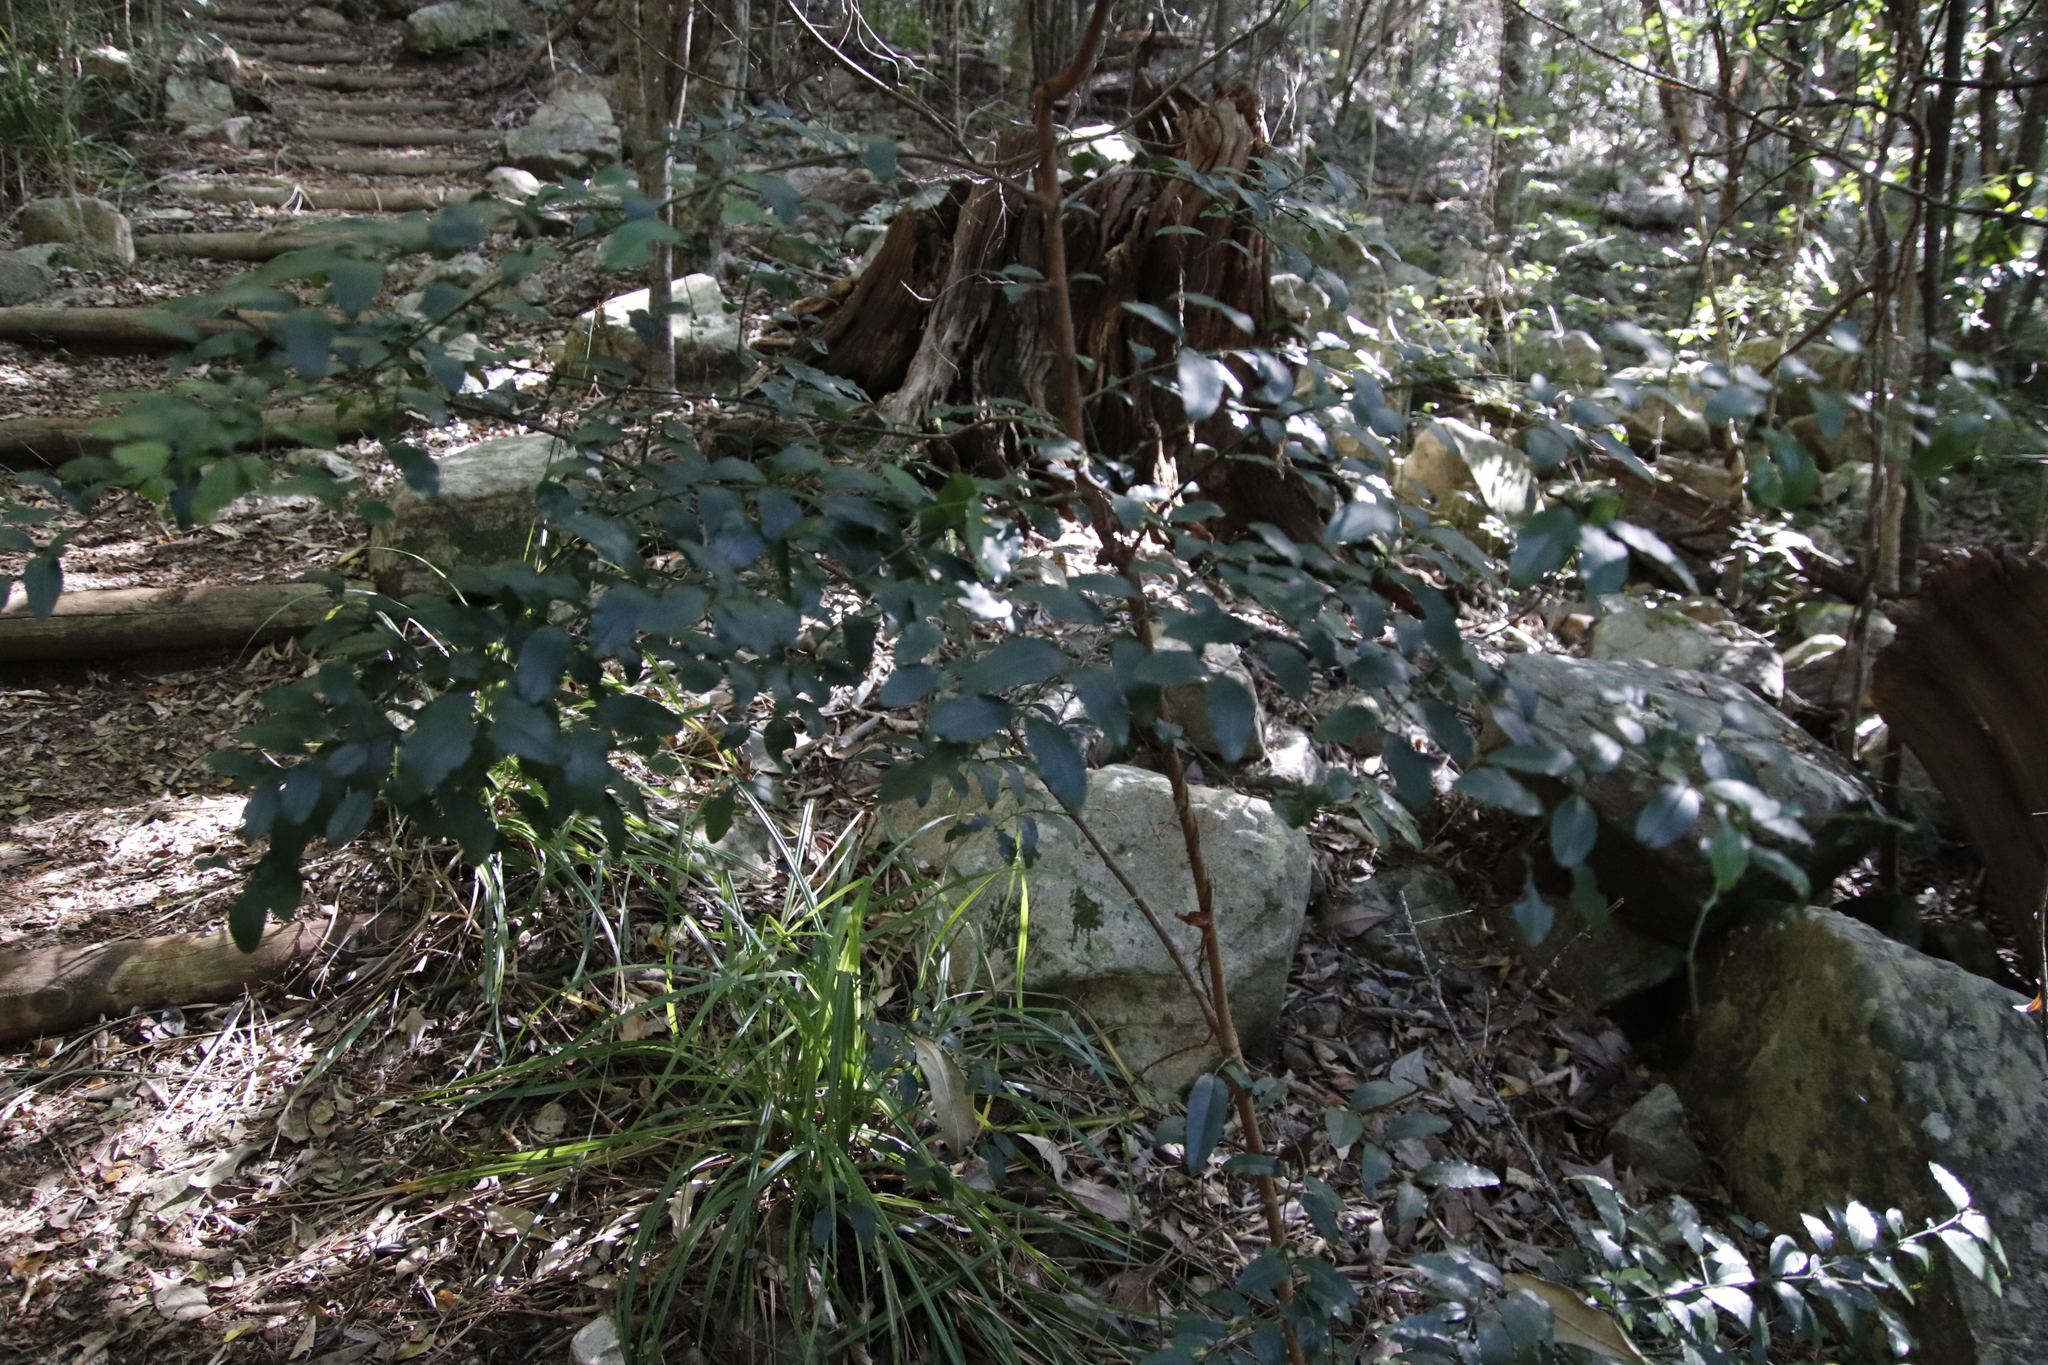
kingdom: Plantae
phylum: Tracheophyta
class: Magnoliopsida
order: Rosales
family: Rhamnaceae
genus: Scutia
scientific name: Scutia myrtina
